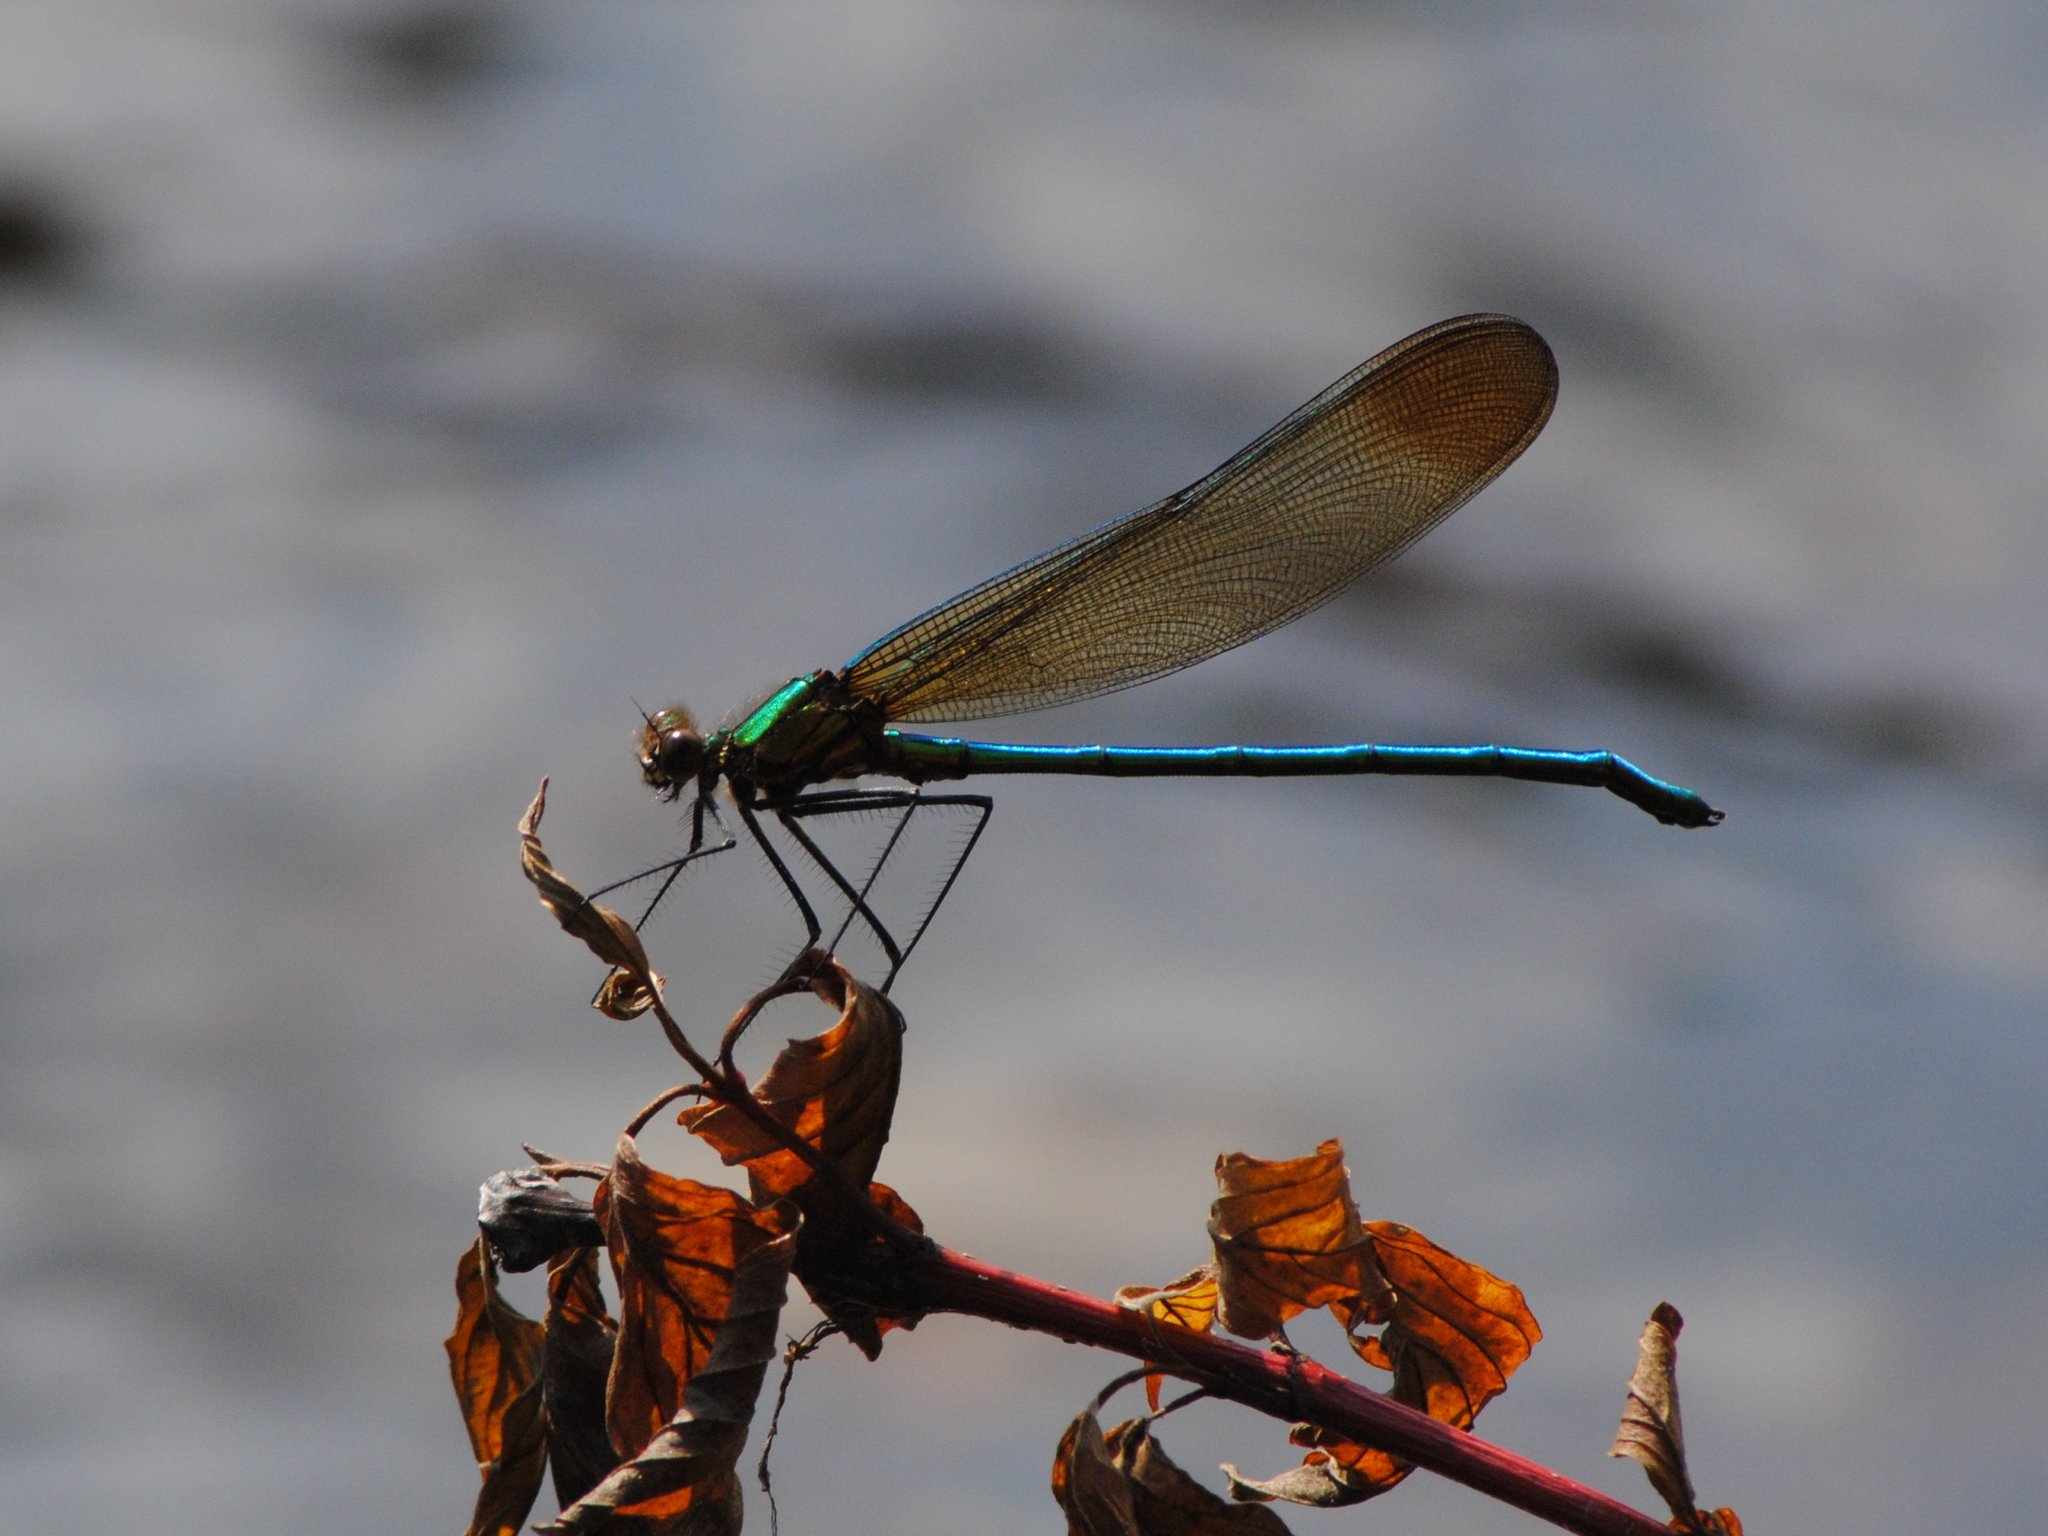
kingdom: Animalia
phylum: Arthropoda
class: Insecta
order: Odonata
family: Calopterygidae
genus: Calopteryx
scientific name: Calopteryx amata
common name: Superb jewelwing
